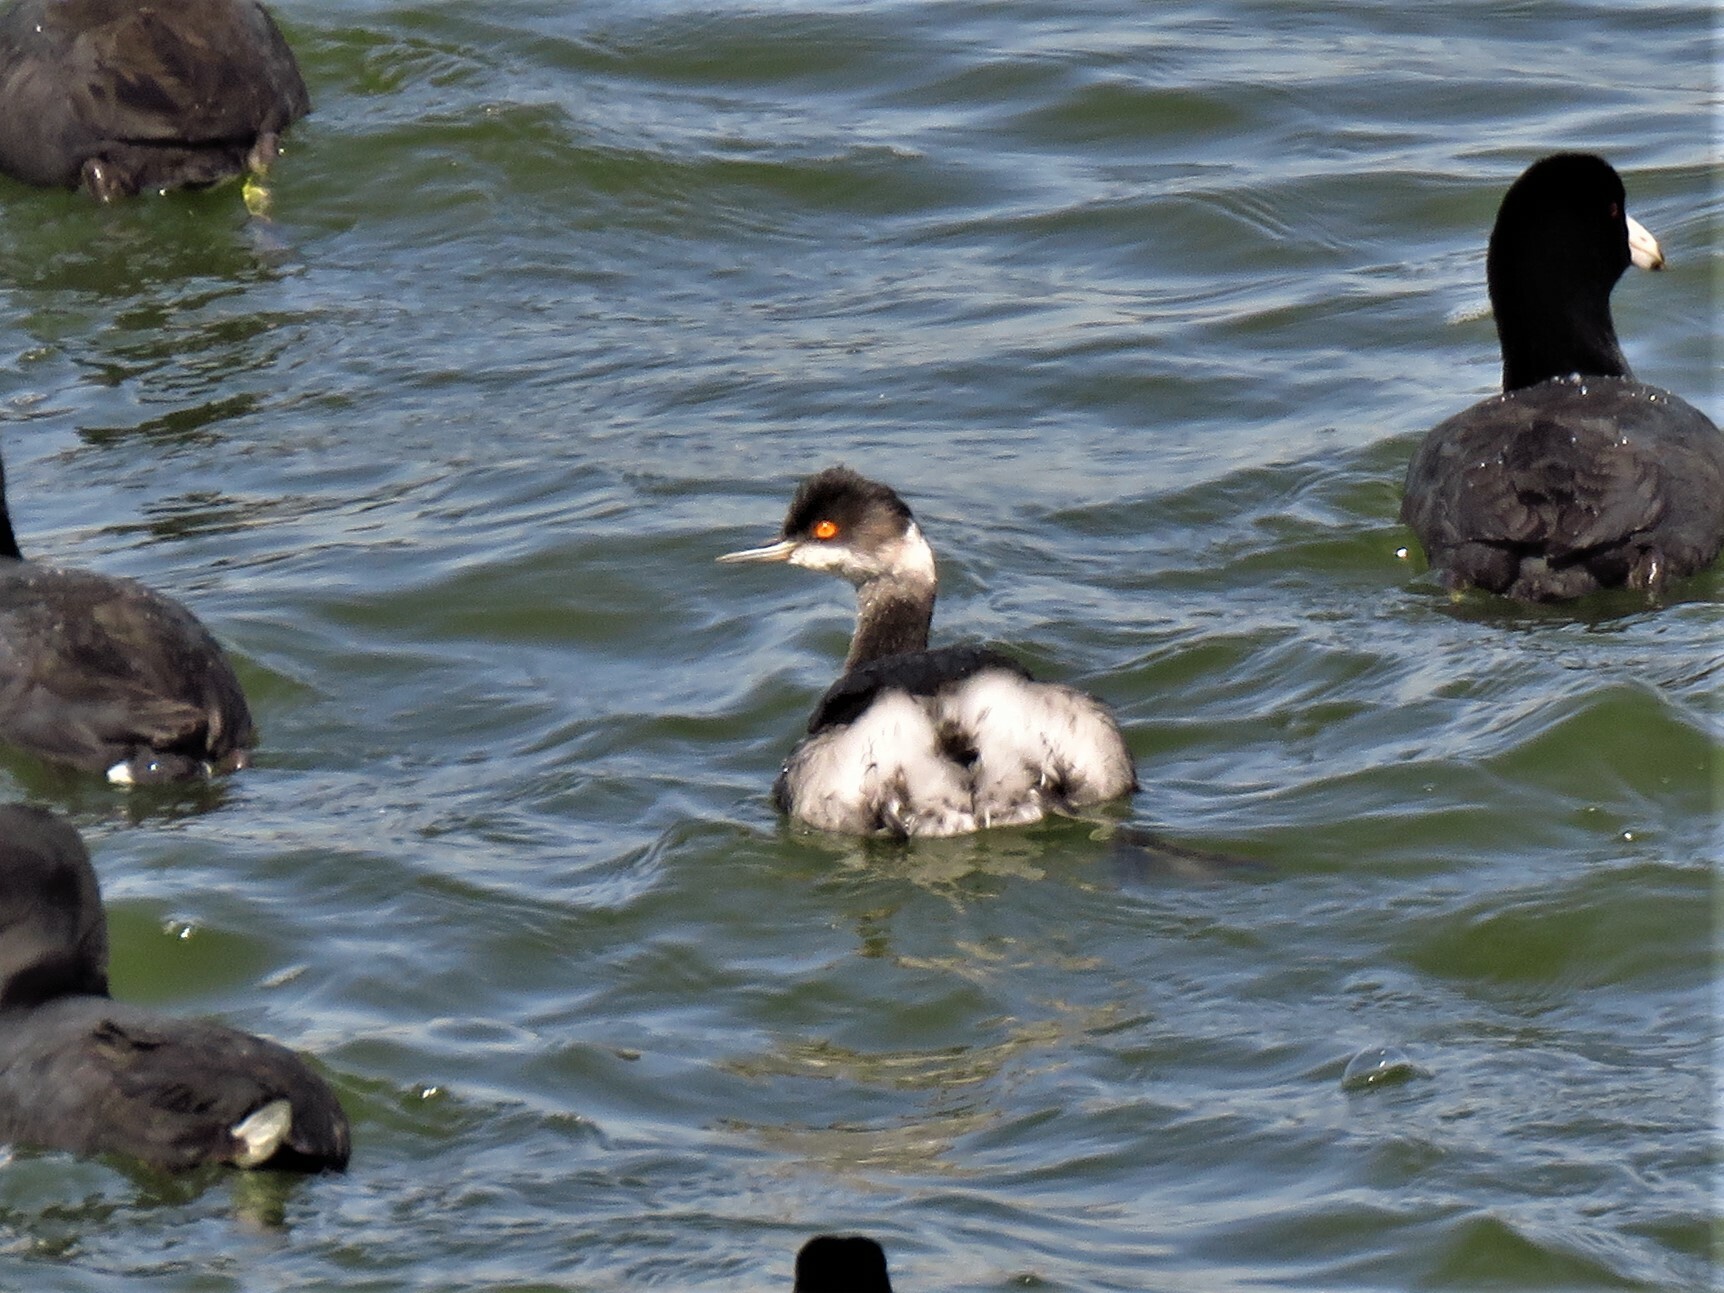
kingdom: Animalia
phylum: Chordata
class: Aves
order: Podicipediformes
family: Podicipedidae
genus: Podiceps
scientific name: Podiceps nigricollis
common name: Black-necked grebe
